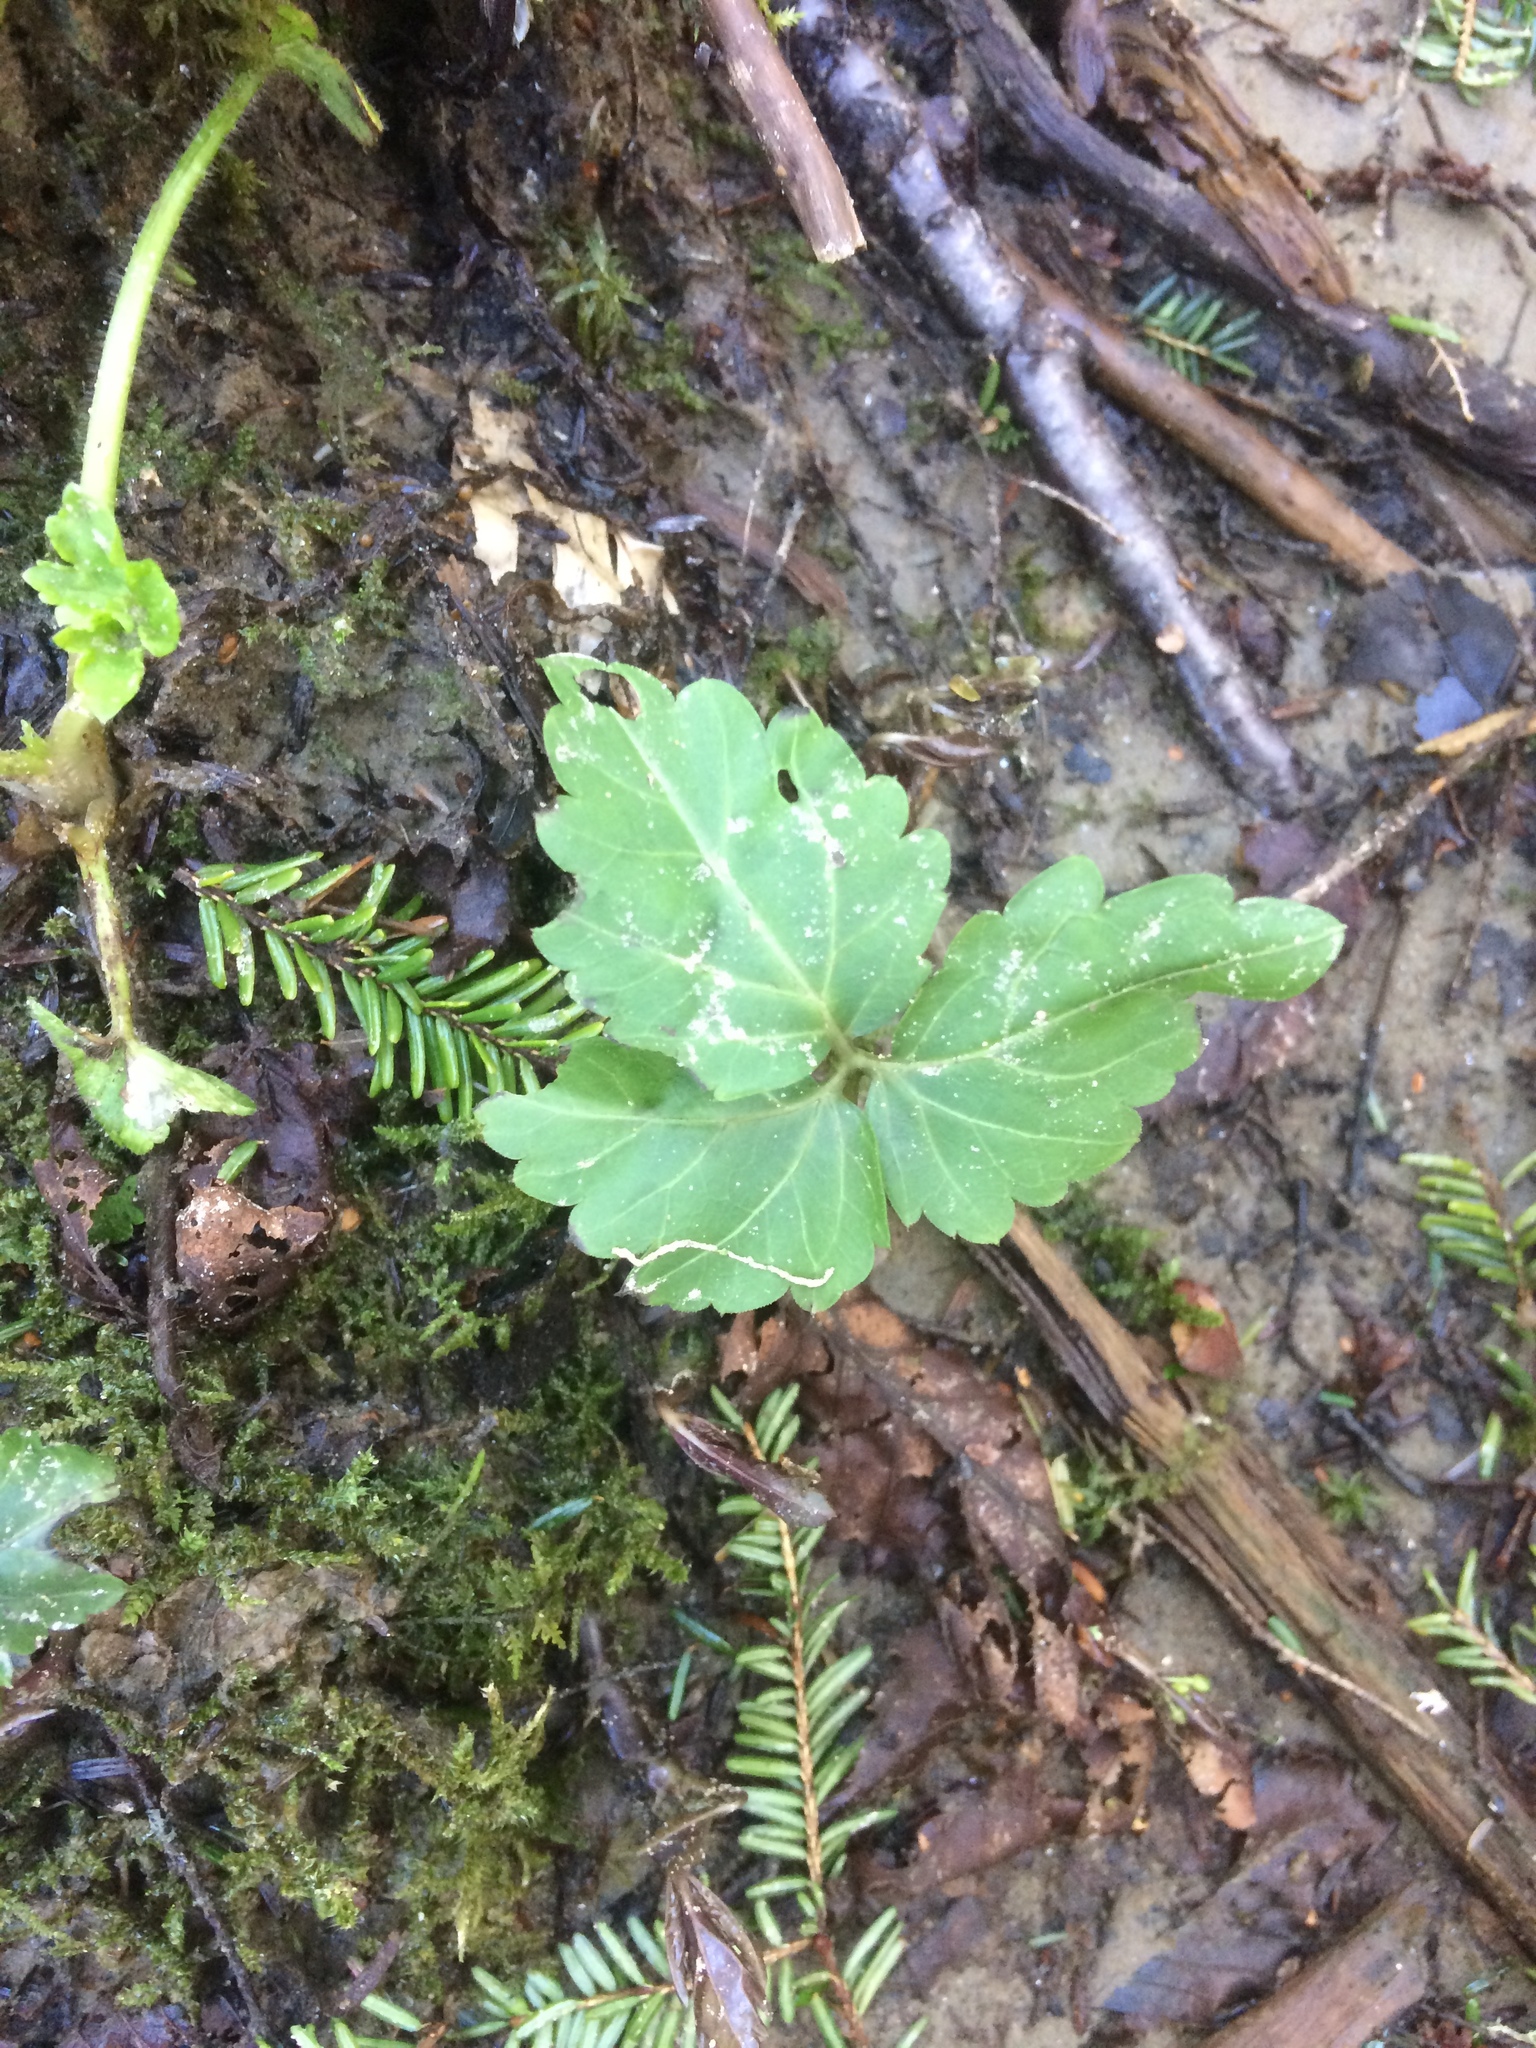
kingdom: Plantae
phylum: Tracheophyta
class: Magnoliopsida
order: Brassicales
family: Brassicaceae
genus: Cardamine
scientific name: Cardamine diphylla
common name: Broad-leaved toothwort
